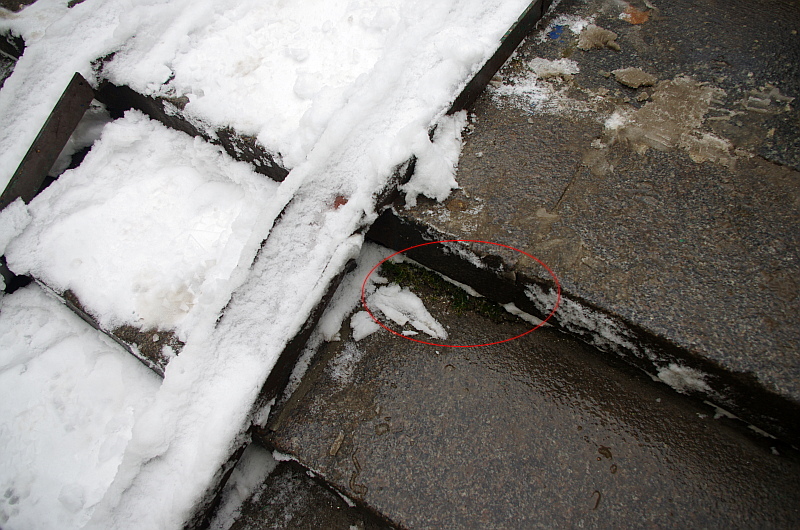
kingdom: Plantae
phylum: Tracheophyta
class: Magnoliopsida
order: Caryophyllales
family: Caryophyllaceae
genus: Sagina
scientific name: Sagina procumbens
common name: Procumbent pearlwort
